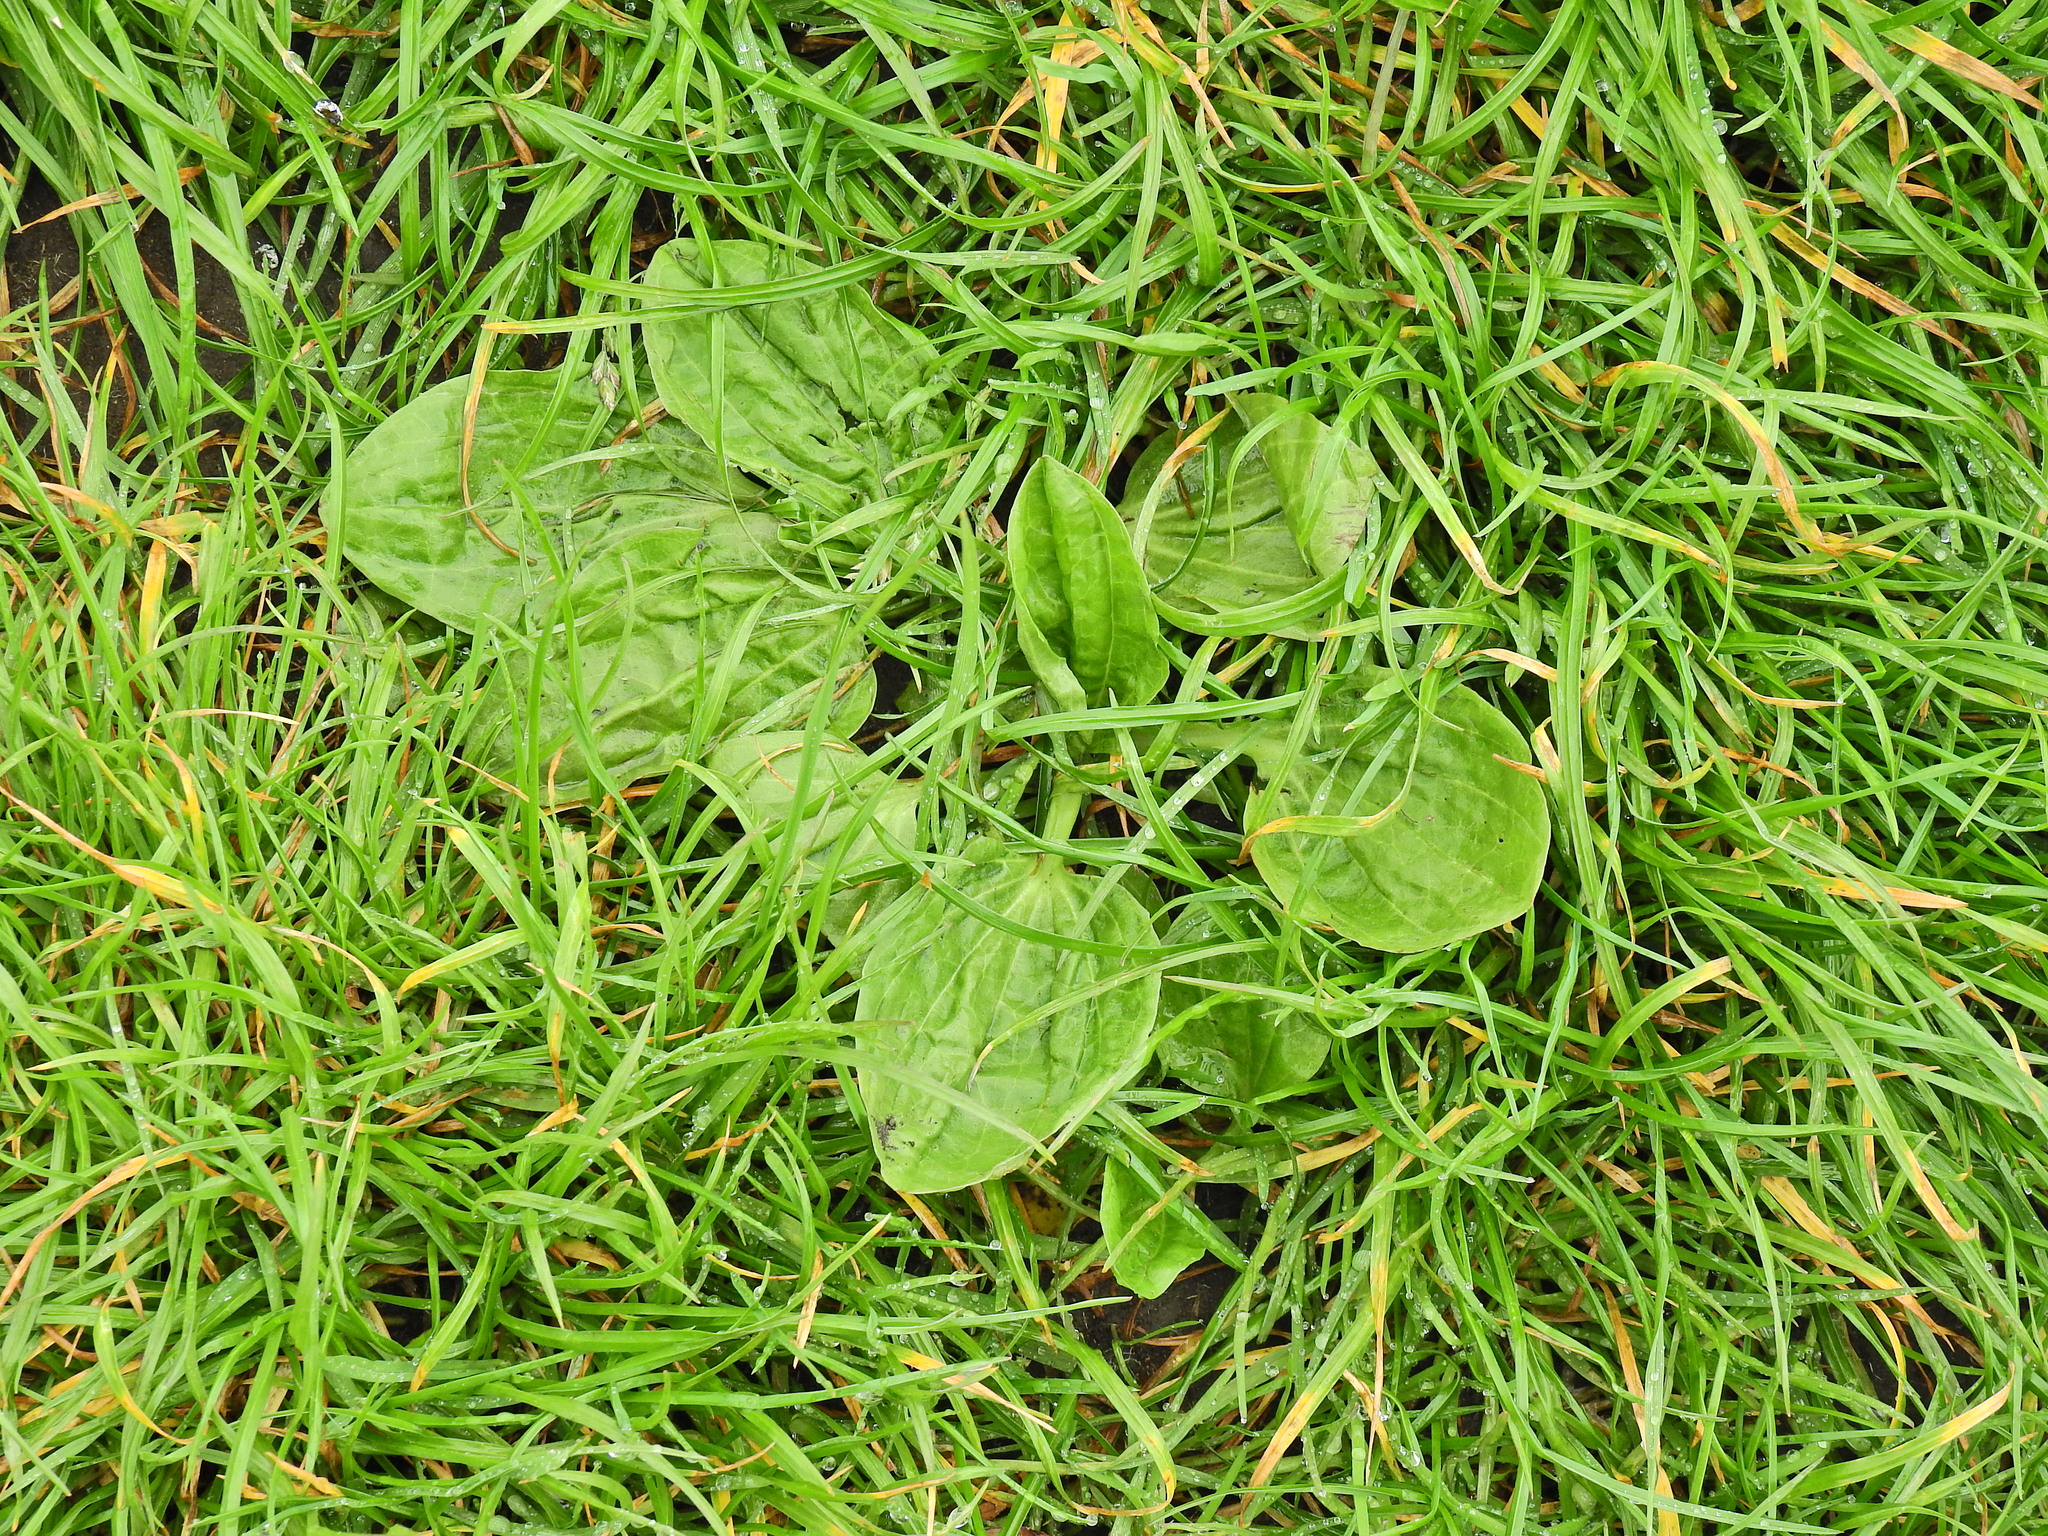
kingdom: Plantae
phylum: Tracheophyta
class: Magnoliopsida
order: Lamiales
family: Plantaginaceae
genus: Plantago
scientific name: Plantago major
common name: Common plantain
